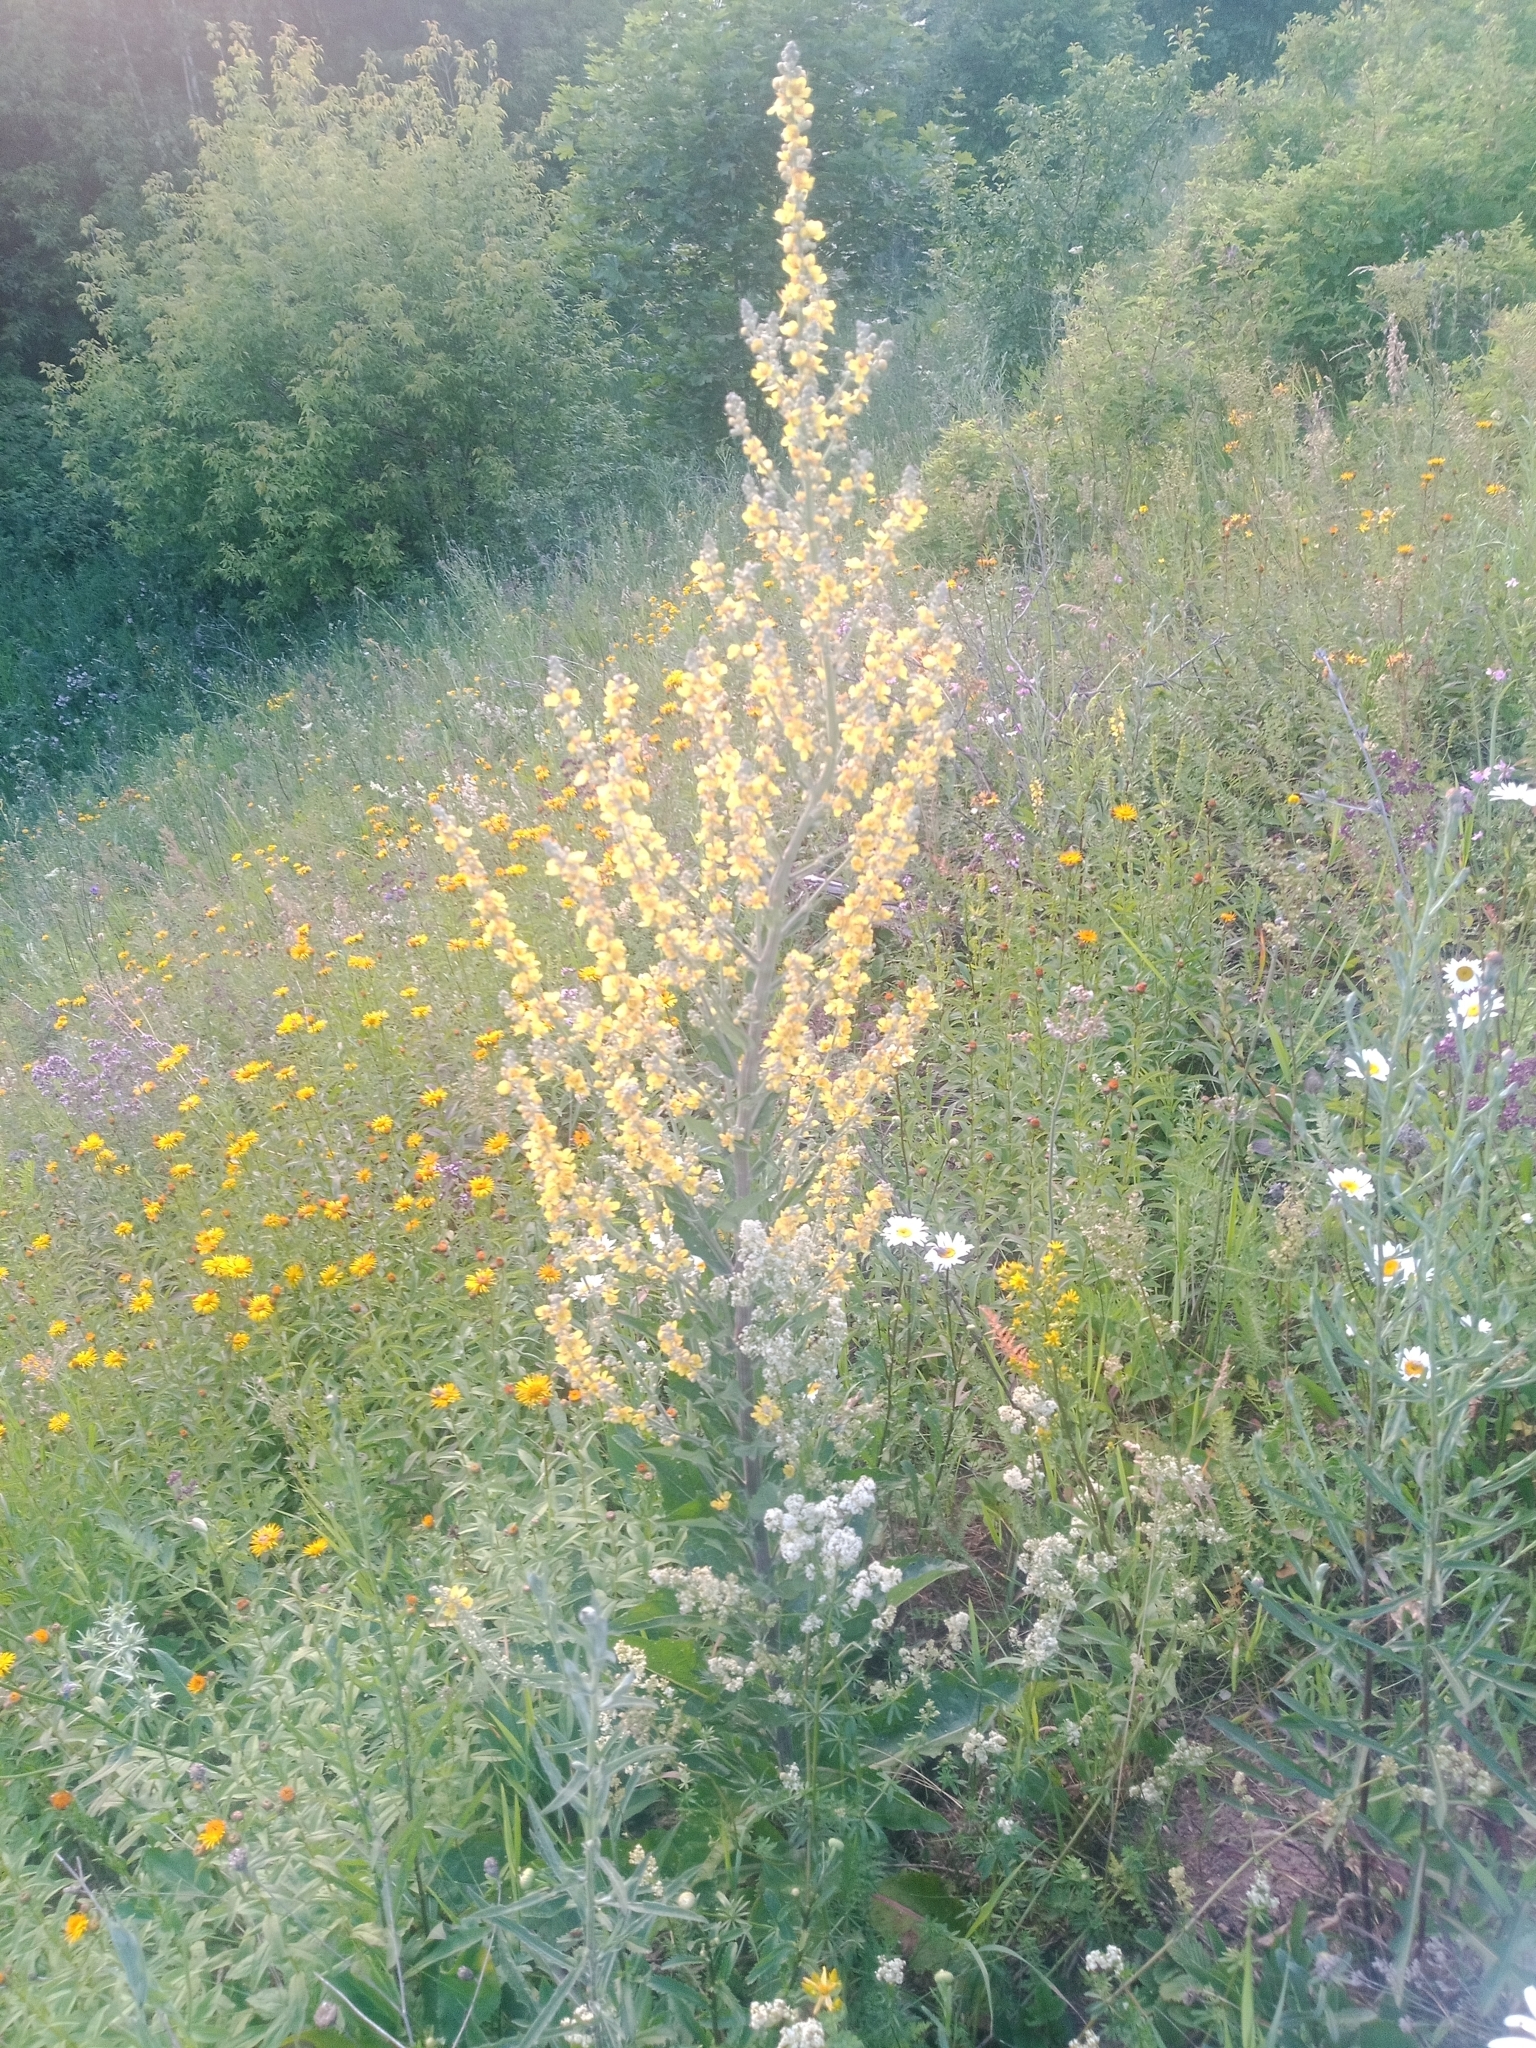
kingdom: Plantae
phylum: Tracheophyta
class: Magnoliopsida
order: Lamiales
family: Scrophulariaceae
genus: Verbascum
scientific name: Verbascum lychnitis
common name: White mullein
